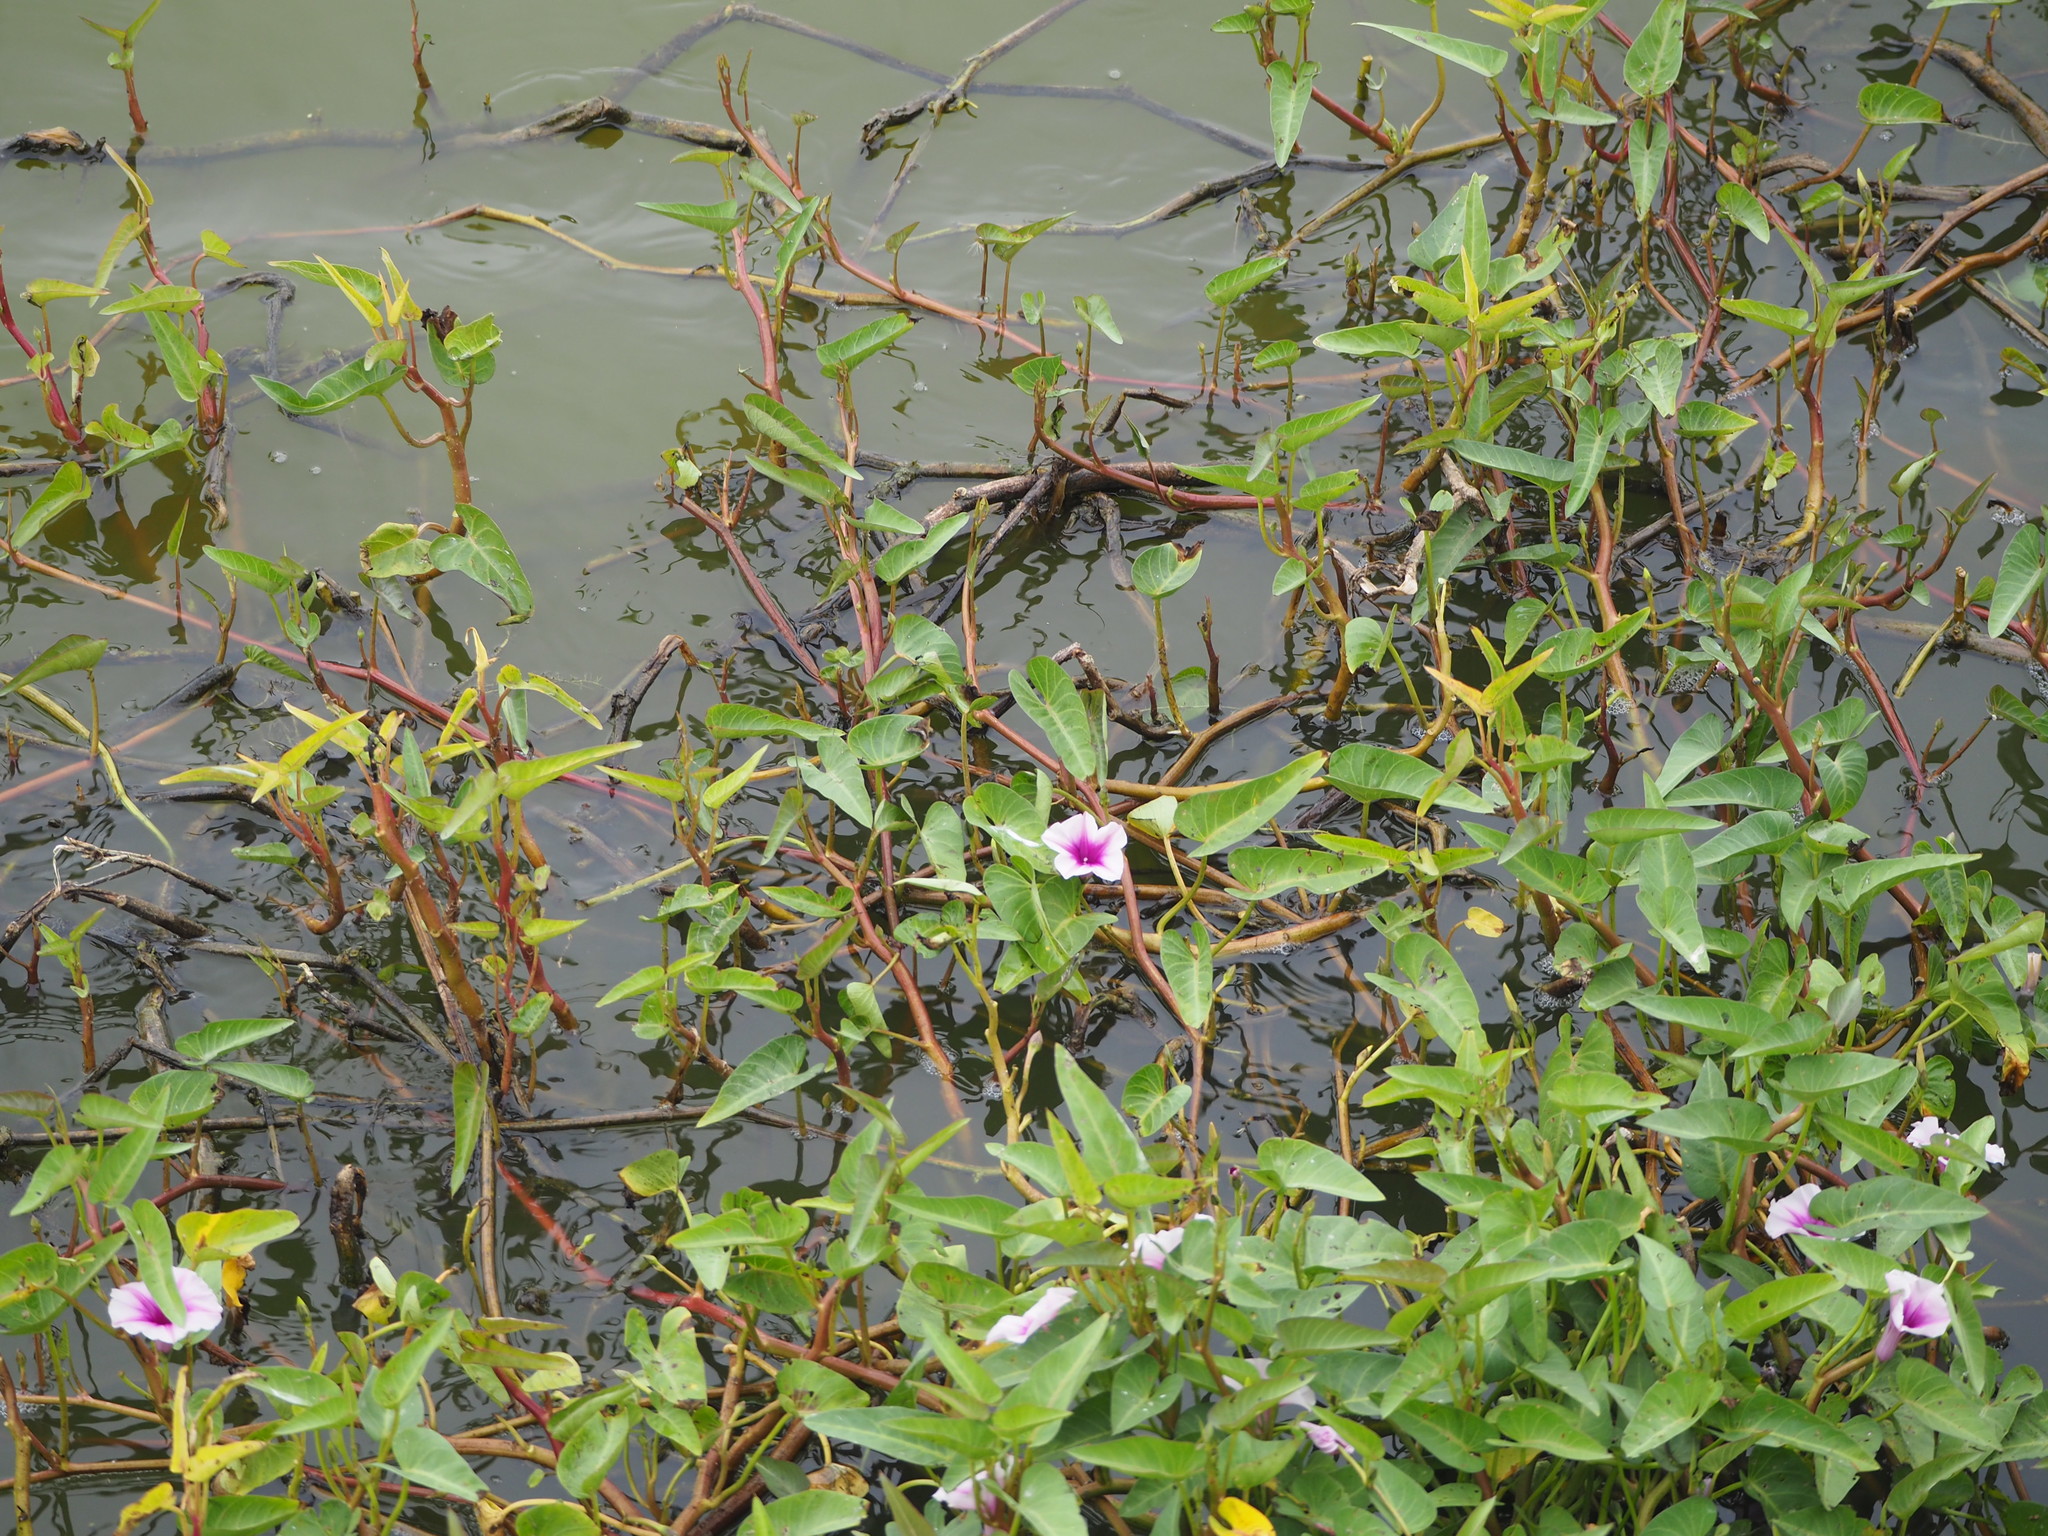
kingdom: Plantae
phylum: Tracheophyta
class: Magnoliopsida
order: Solanales
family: Convolvulaceae
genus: Ipomoea
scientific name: Ipomoea aquatica
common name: Swamp morning-glory
